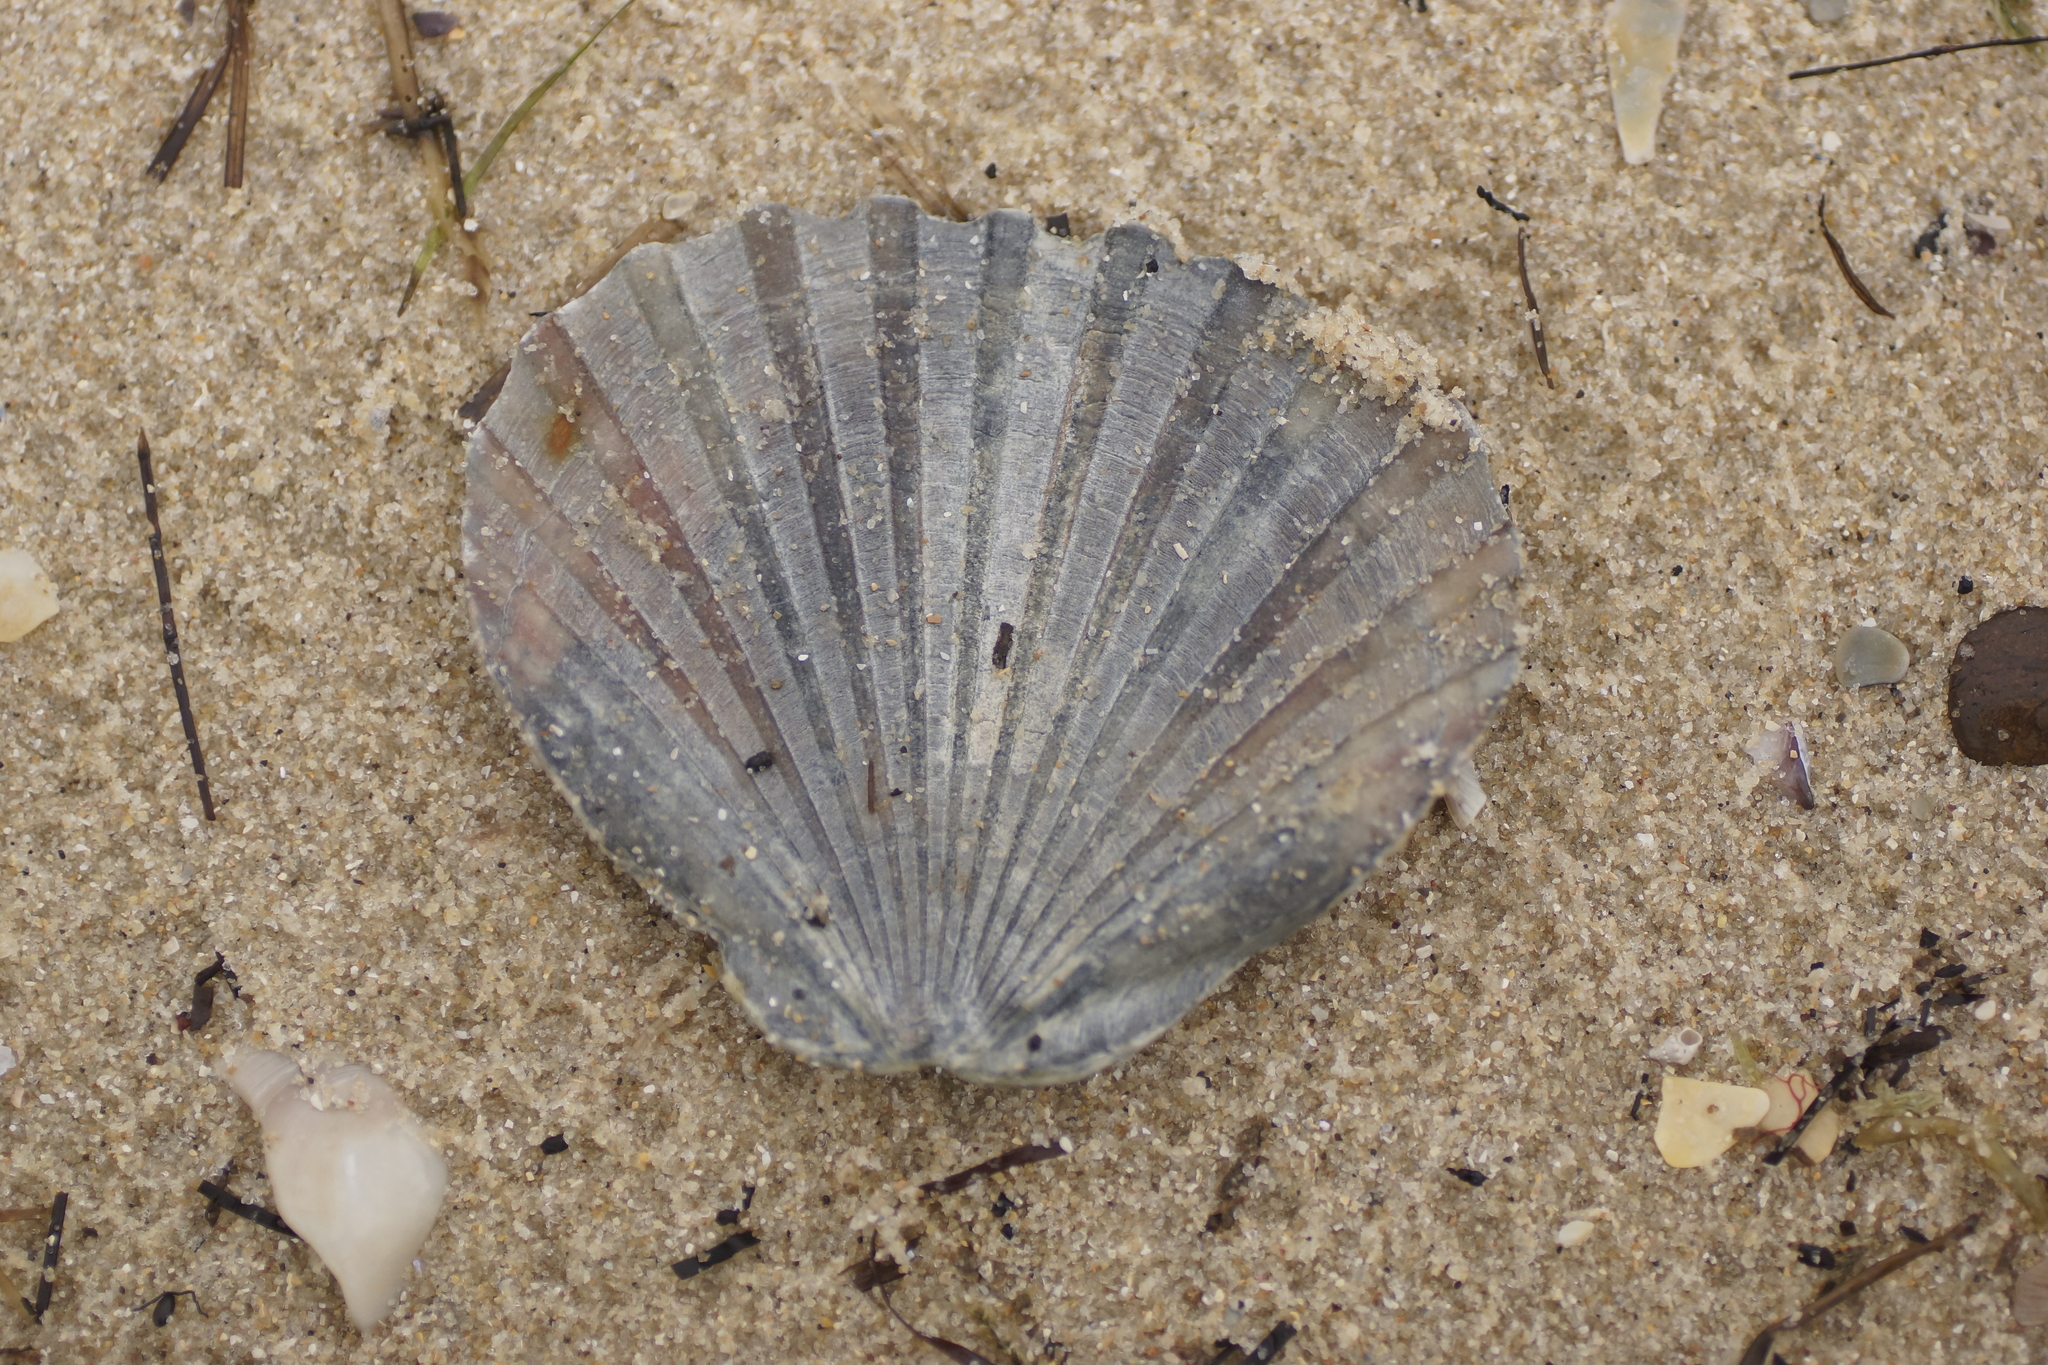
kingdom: Animalia
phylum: Mollusca
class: Bivalvia
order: Pectinida
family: Pectinidae
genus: Pecten
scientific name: Pecten fumatus
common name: Australian scallop
